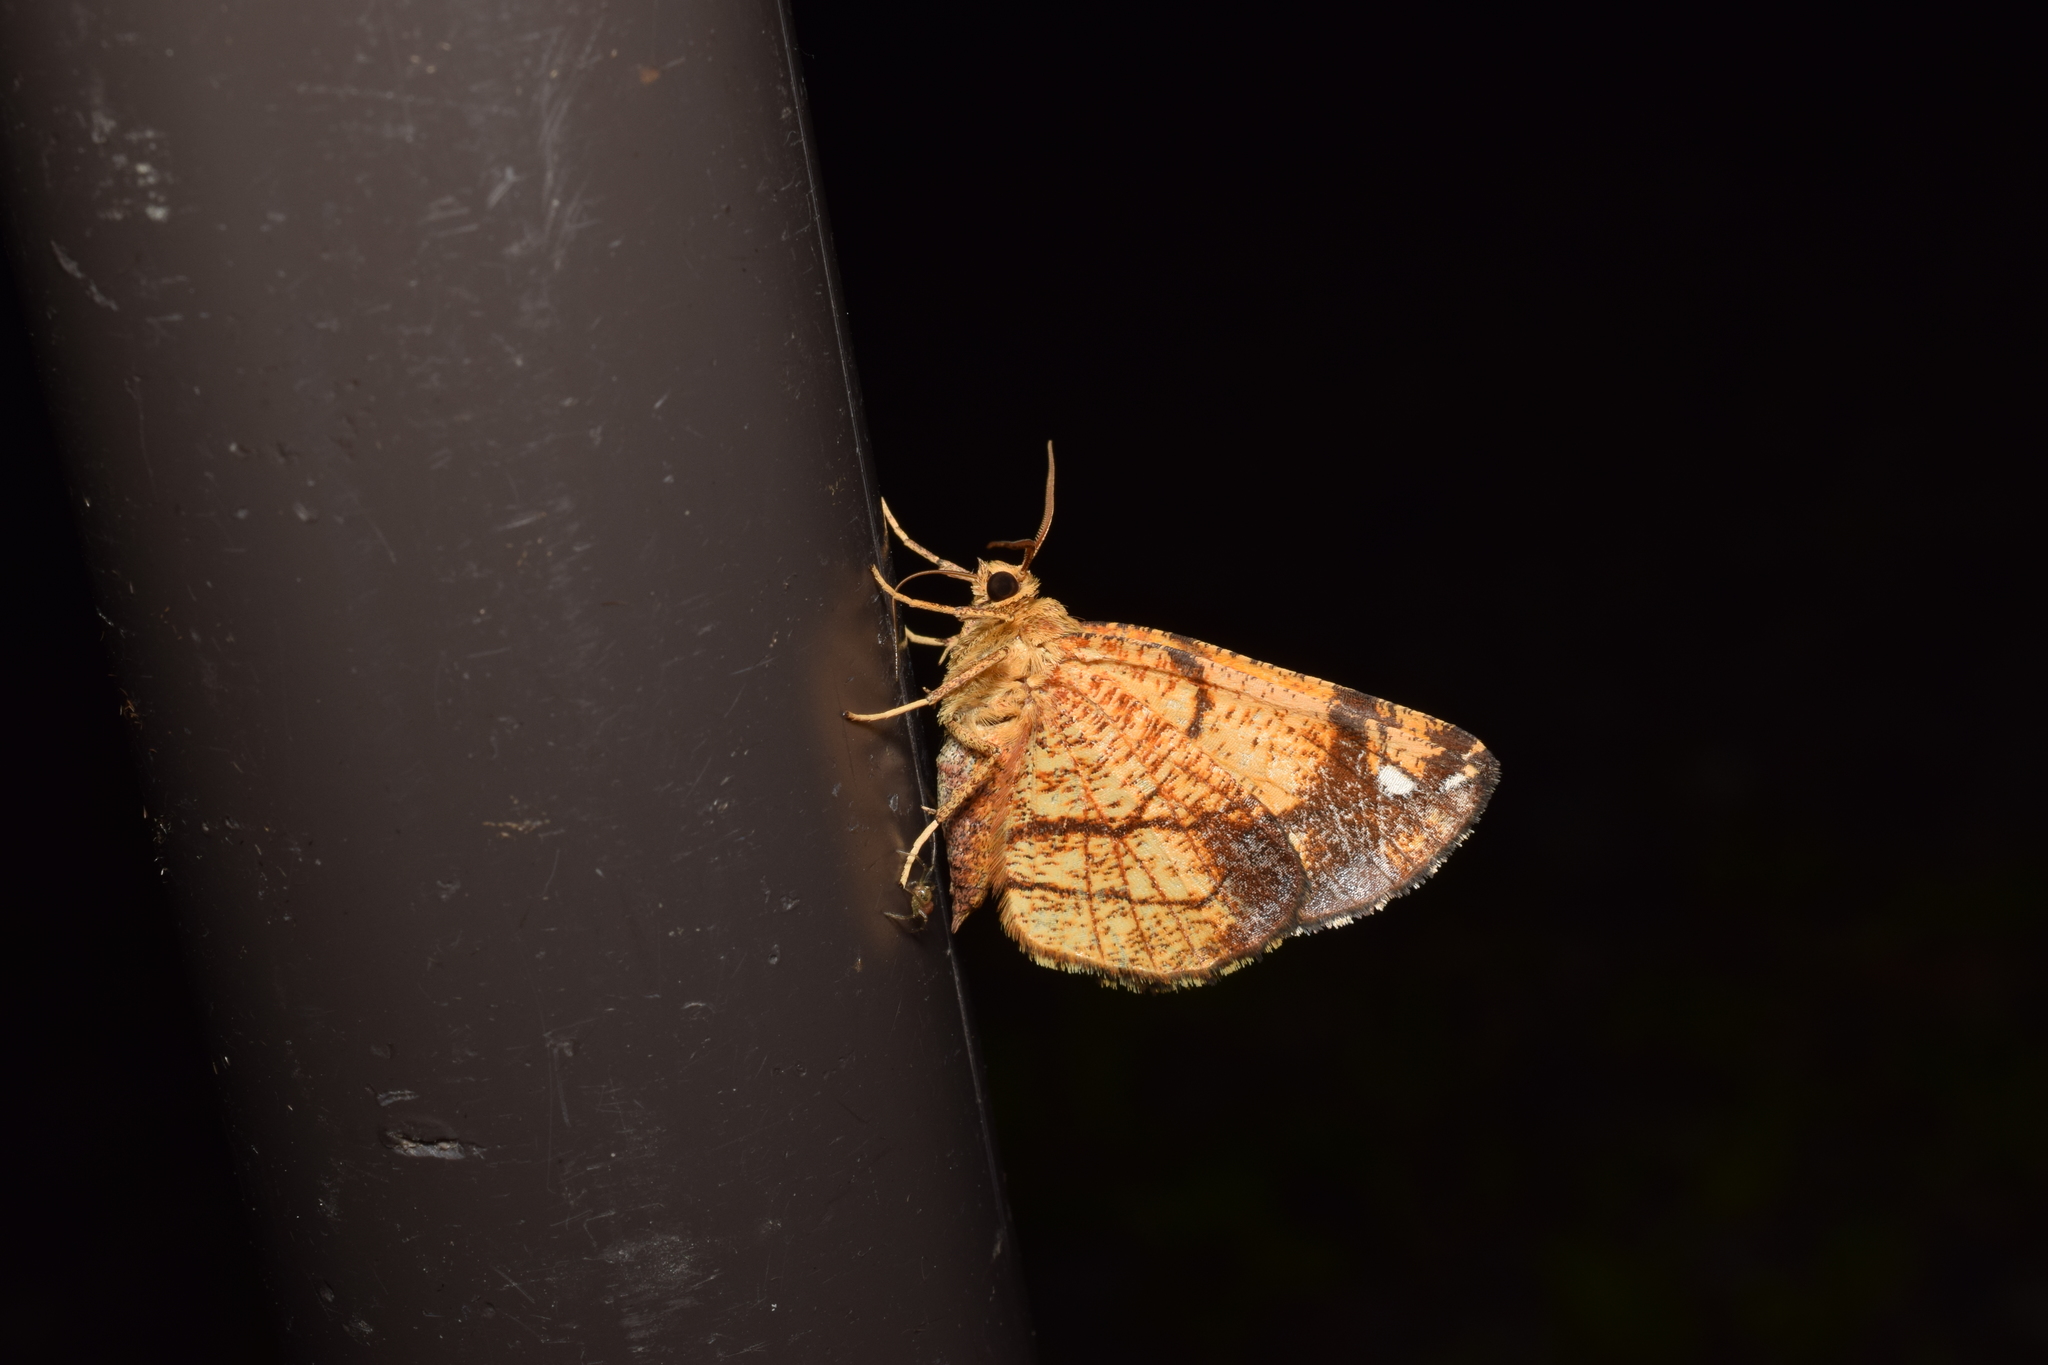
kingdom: Animalia
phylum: Arthropoda
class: Insecta
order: Lepidoptera
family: Geometridae
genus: Epholca
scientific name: Epholca arenosa
